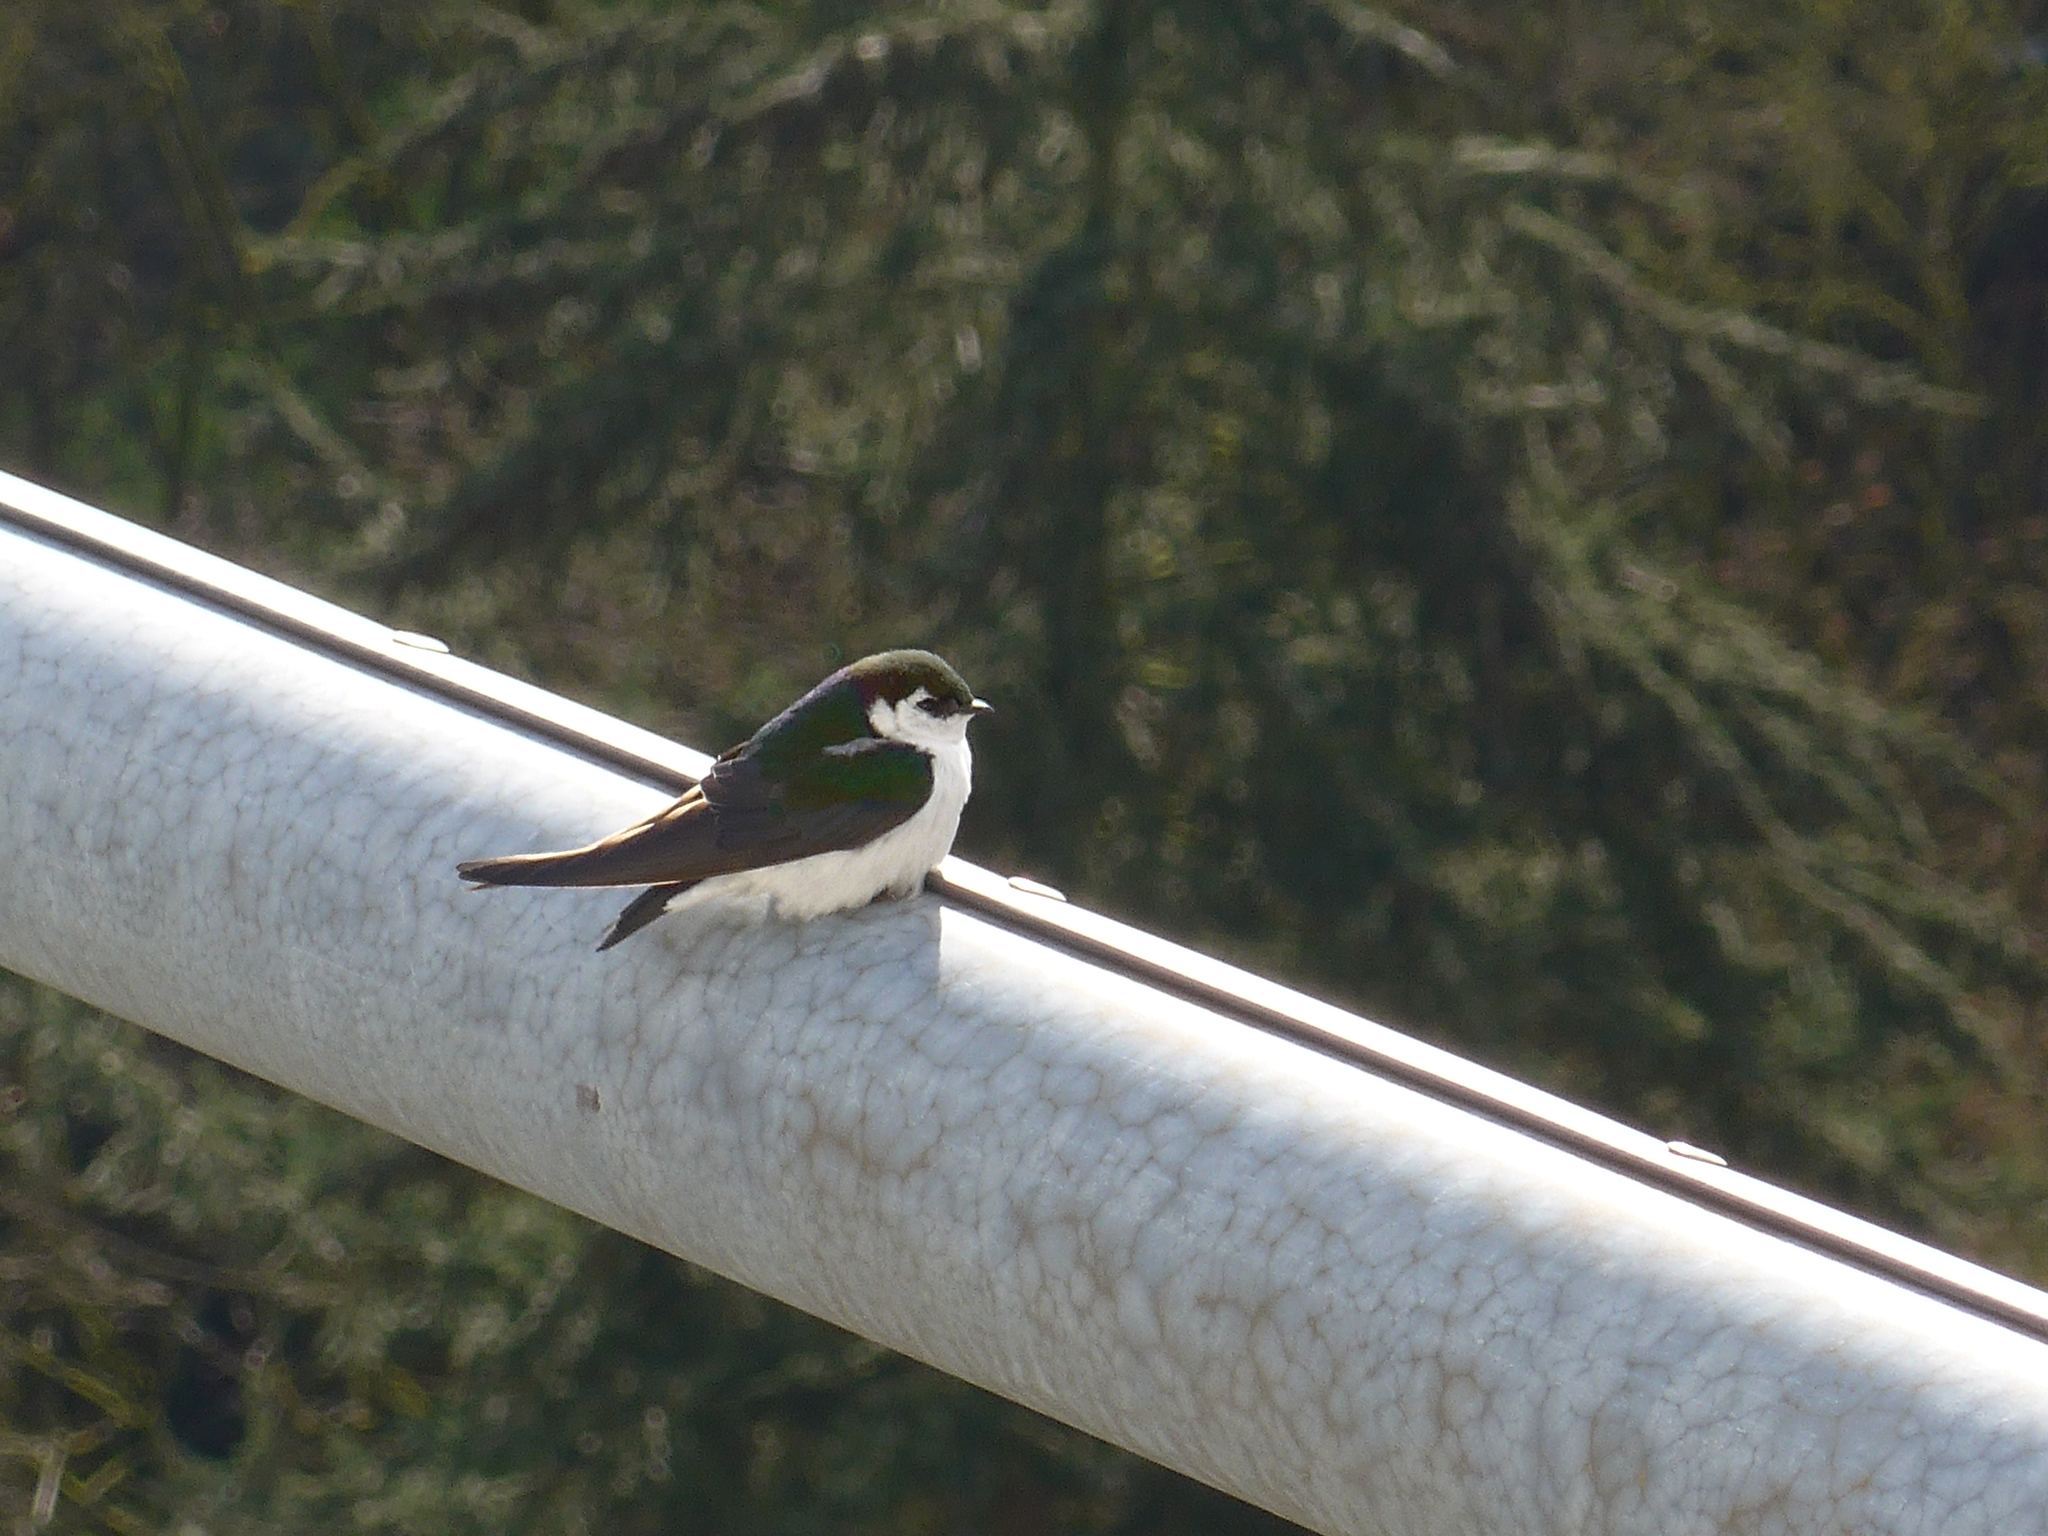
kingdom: Animalia
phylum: Chordata
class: Aves
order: Passeriformes
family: Hirundinidae
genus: Tachycineta
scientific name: Tachycineta thalassina
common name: Violet-green swallow
